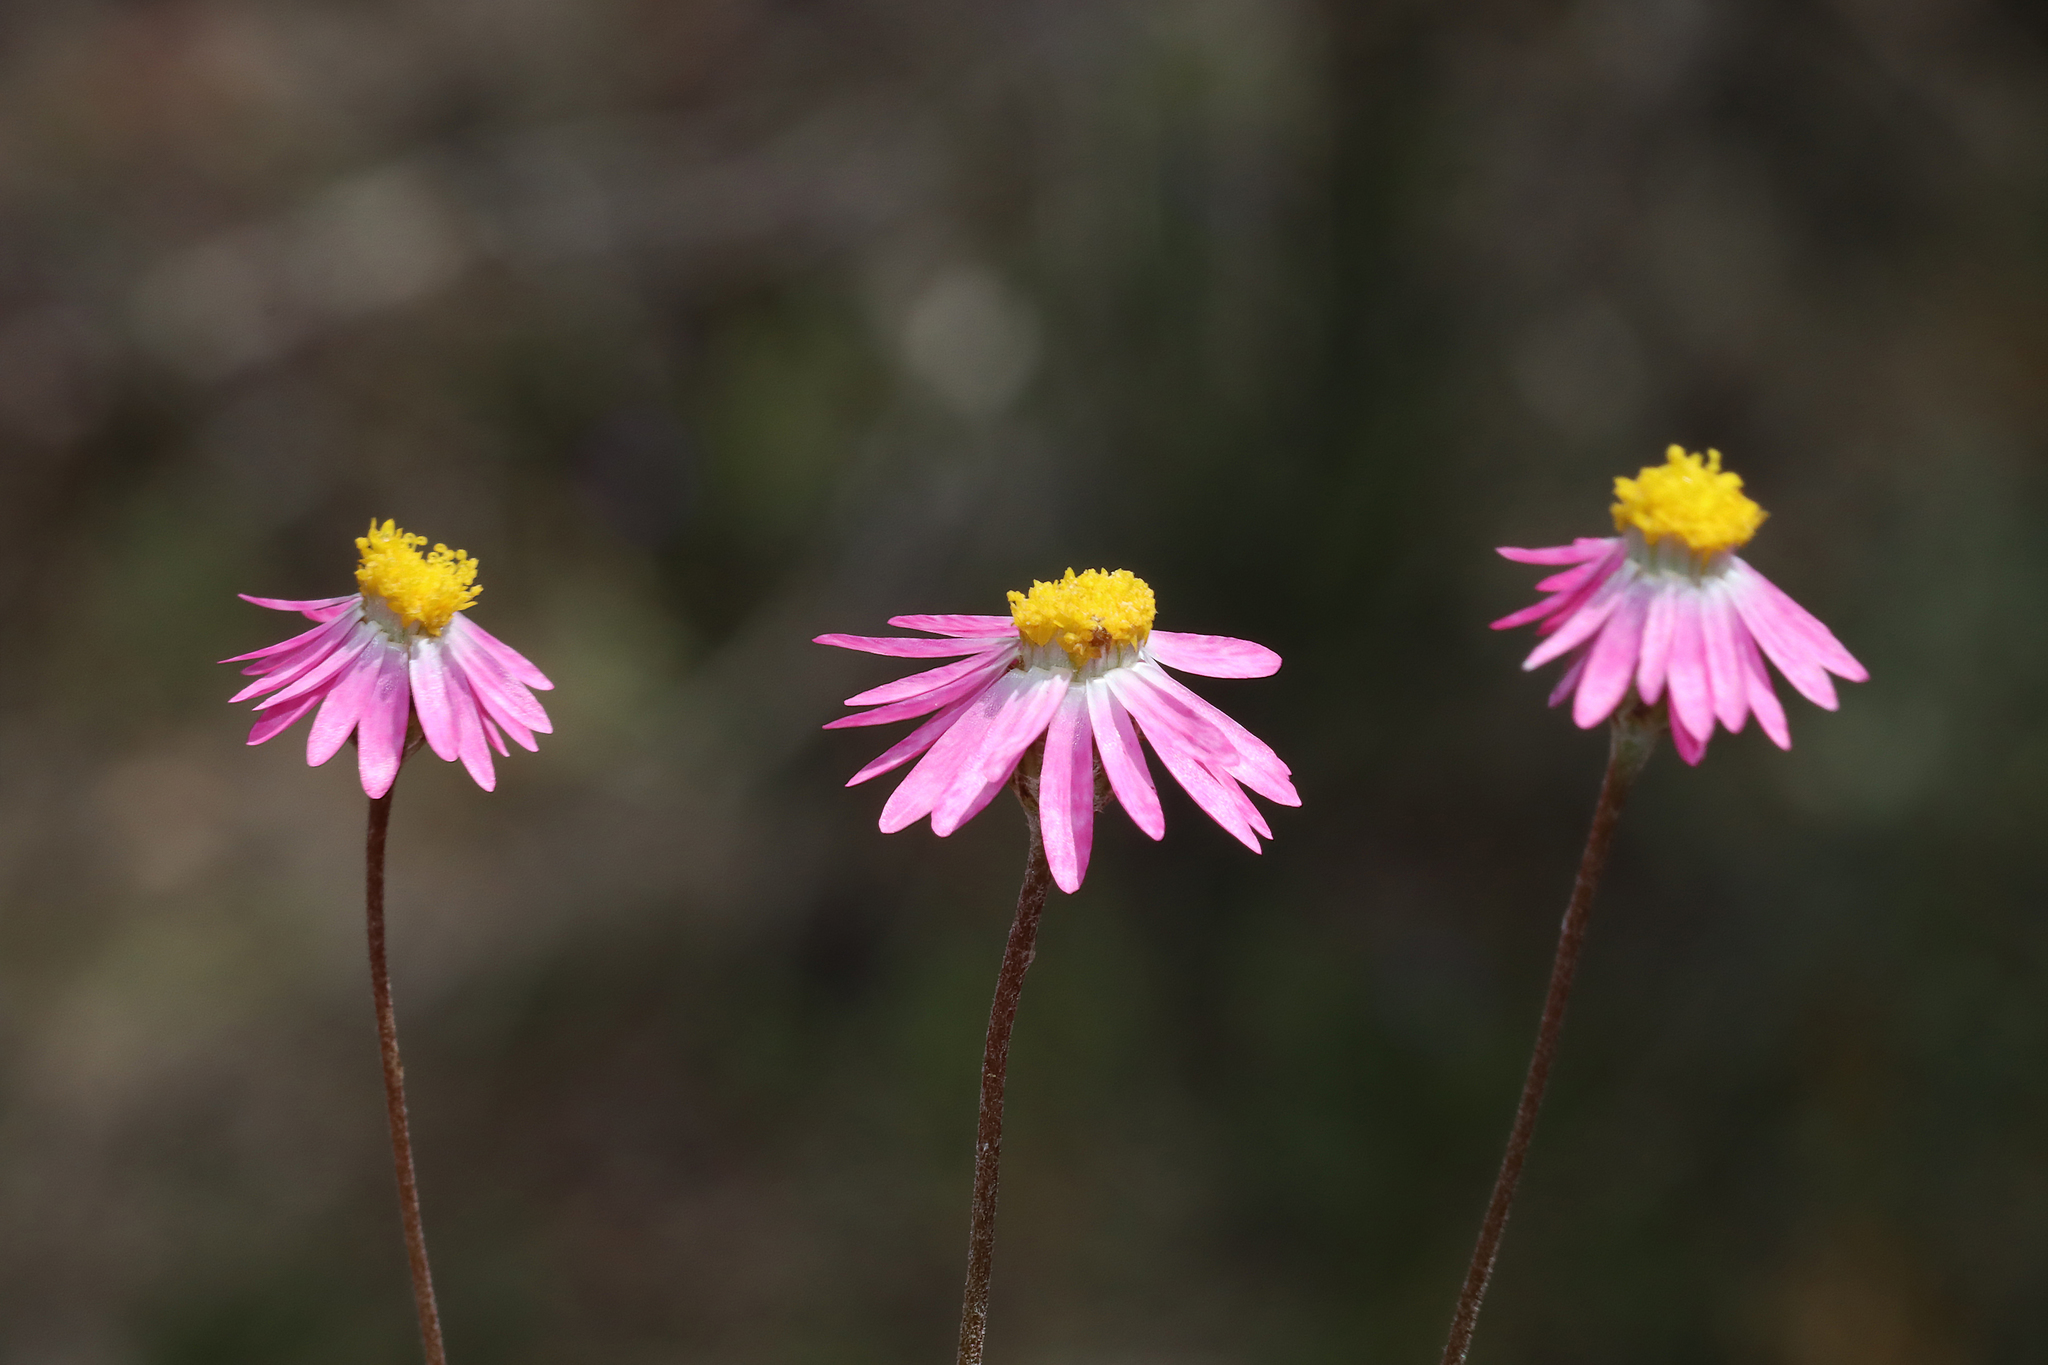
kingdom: Plantae
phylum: Tracheophyta
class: Magnoliopsida
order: Asterales
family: Asteraceae
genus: Lawrencella
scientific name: Lawrencella rosea
